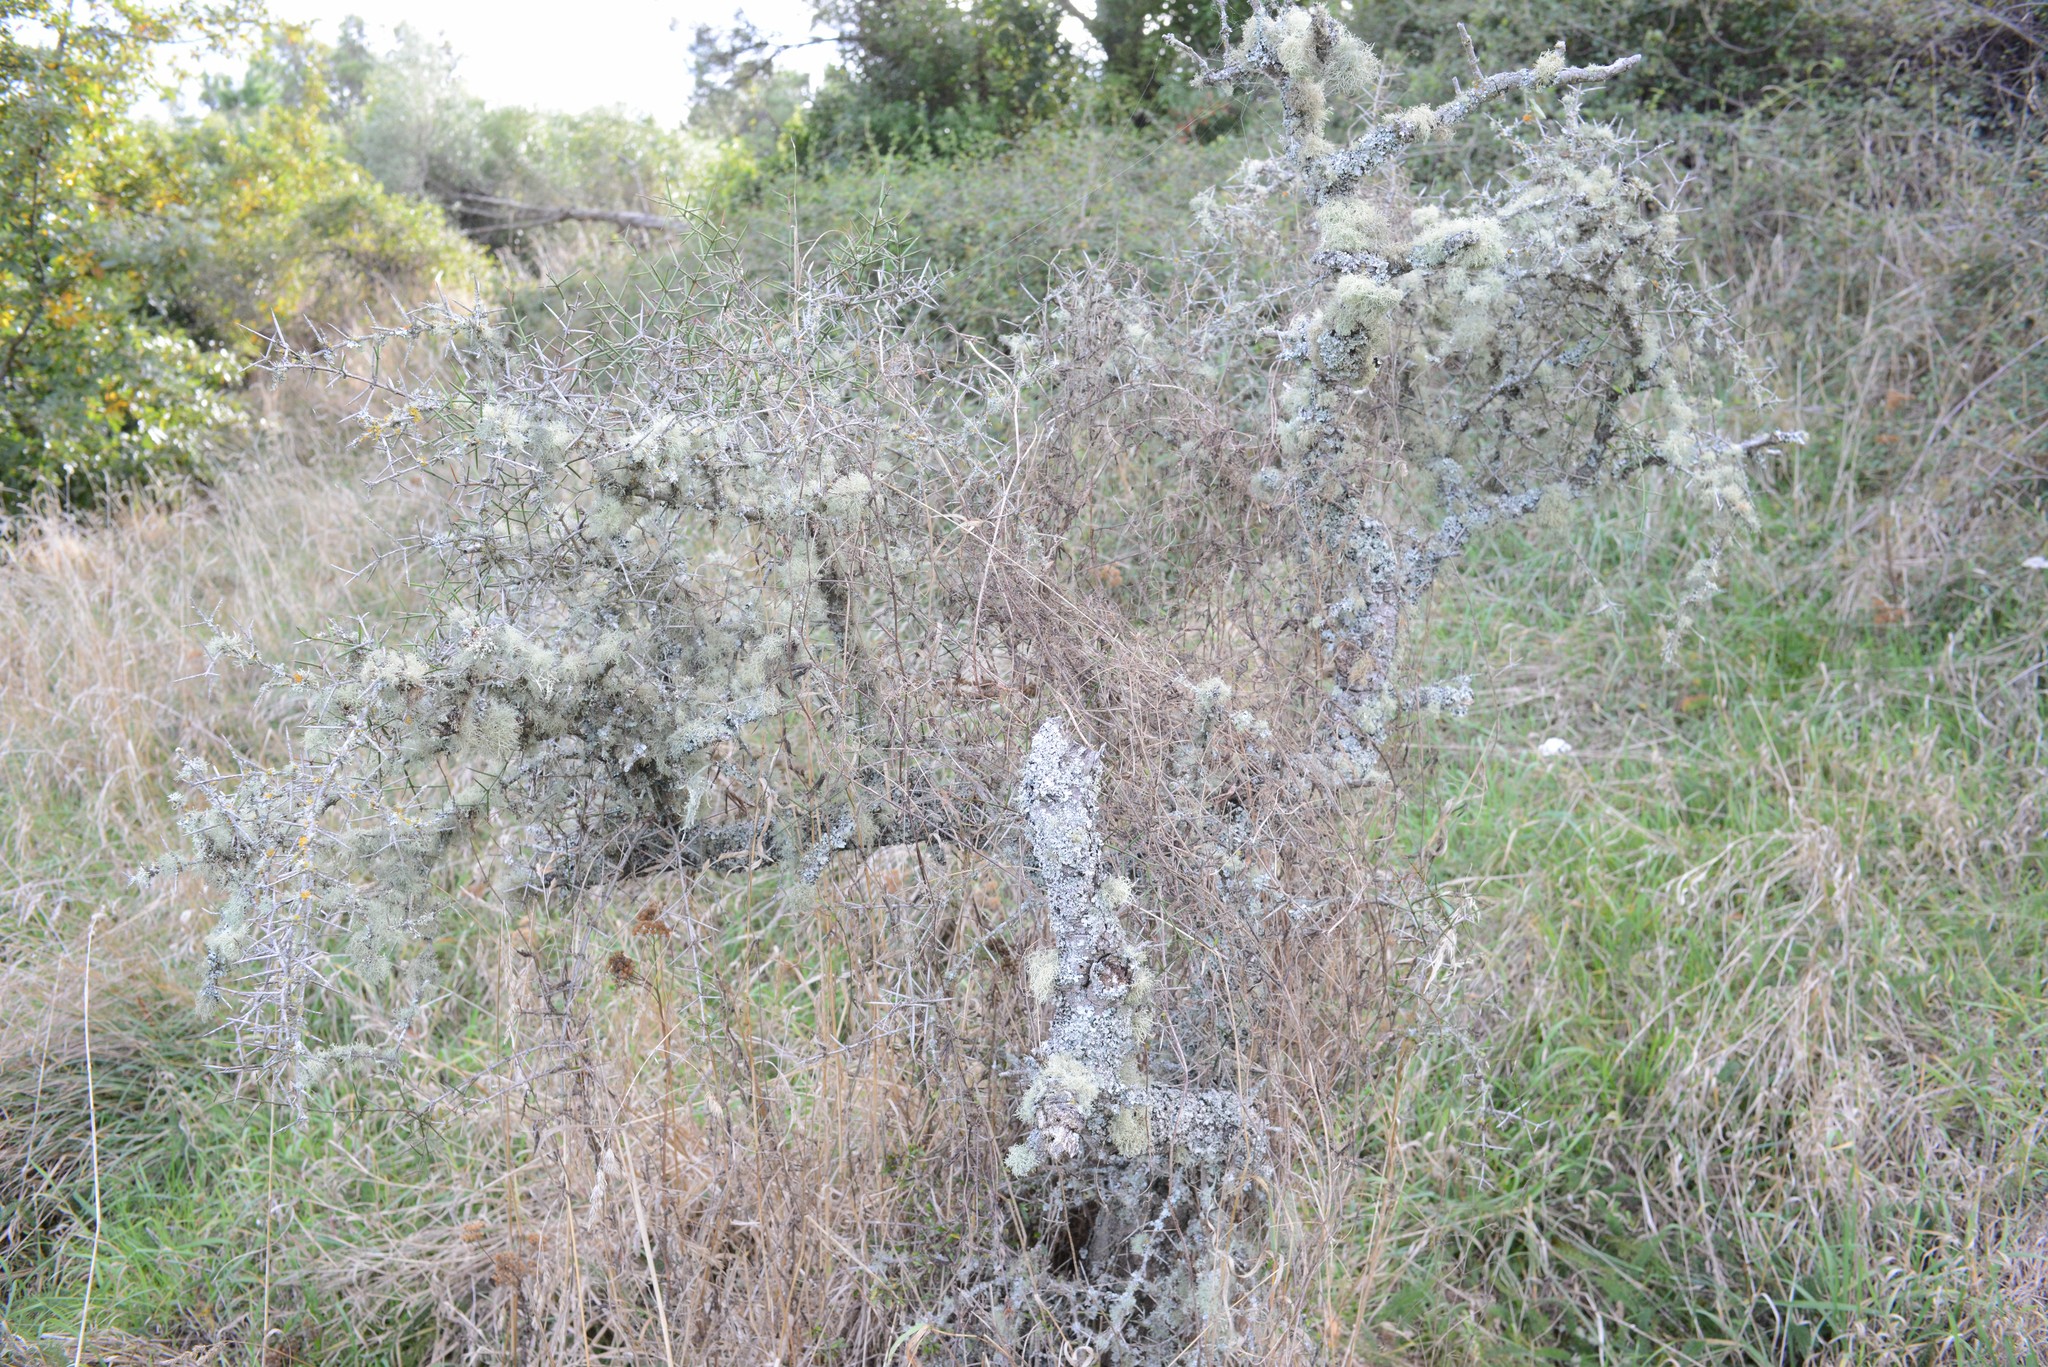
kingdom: Plantae
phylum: Tracheophyta
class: Magnoliopsida
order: Rosales
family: Rhamnaceae
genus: Discaria
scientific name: Discaria toumatou
